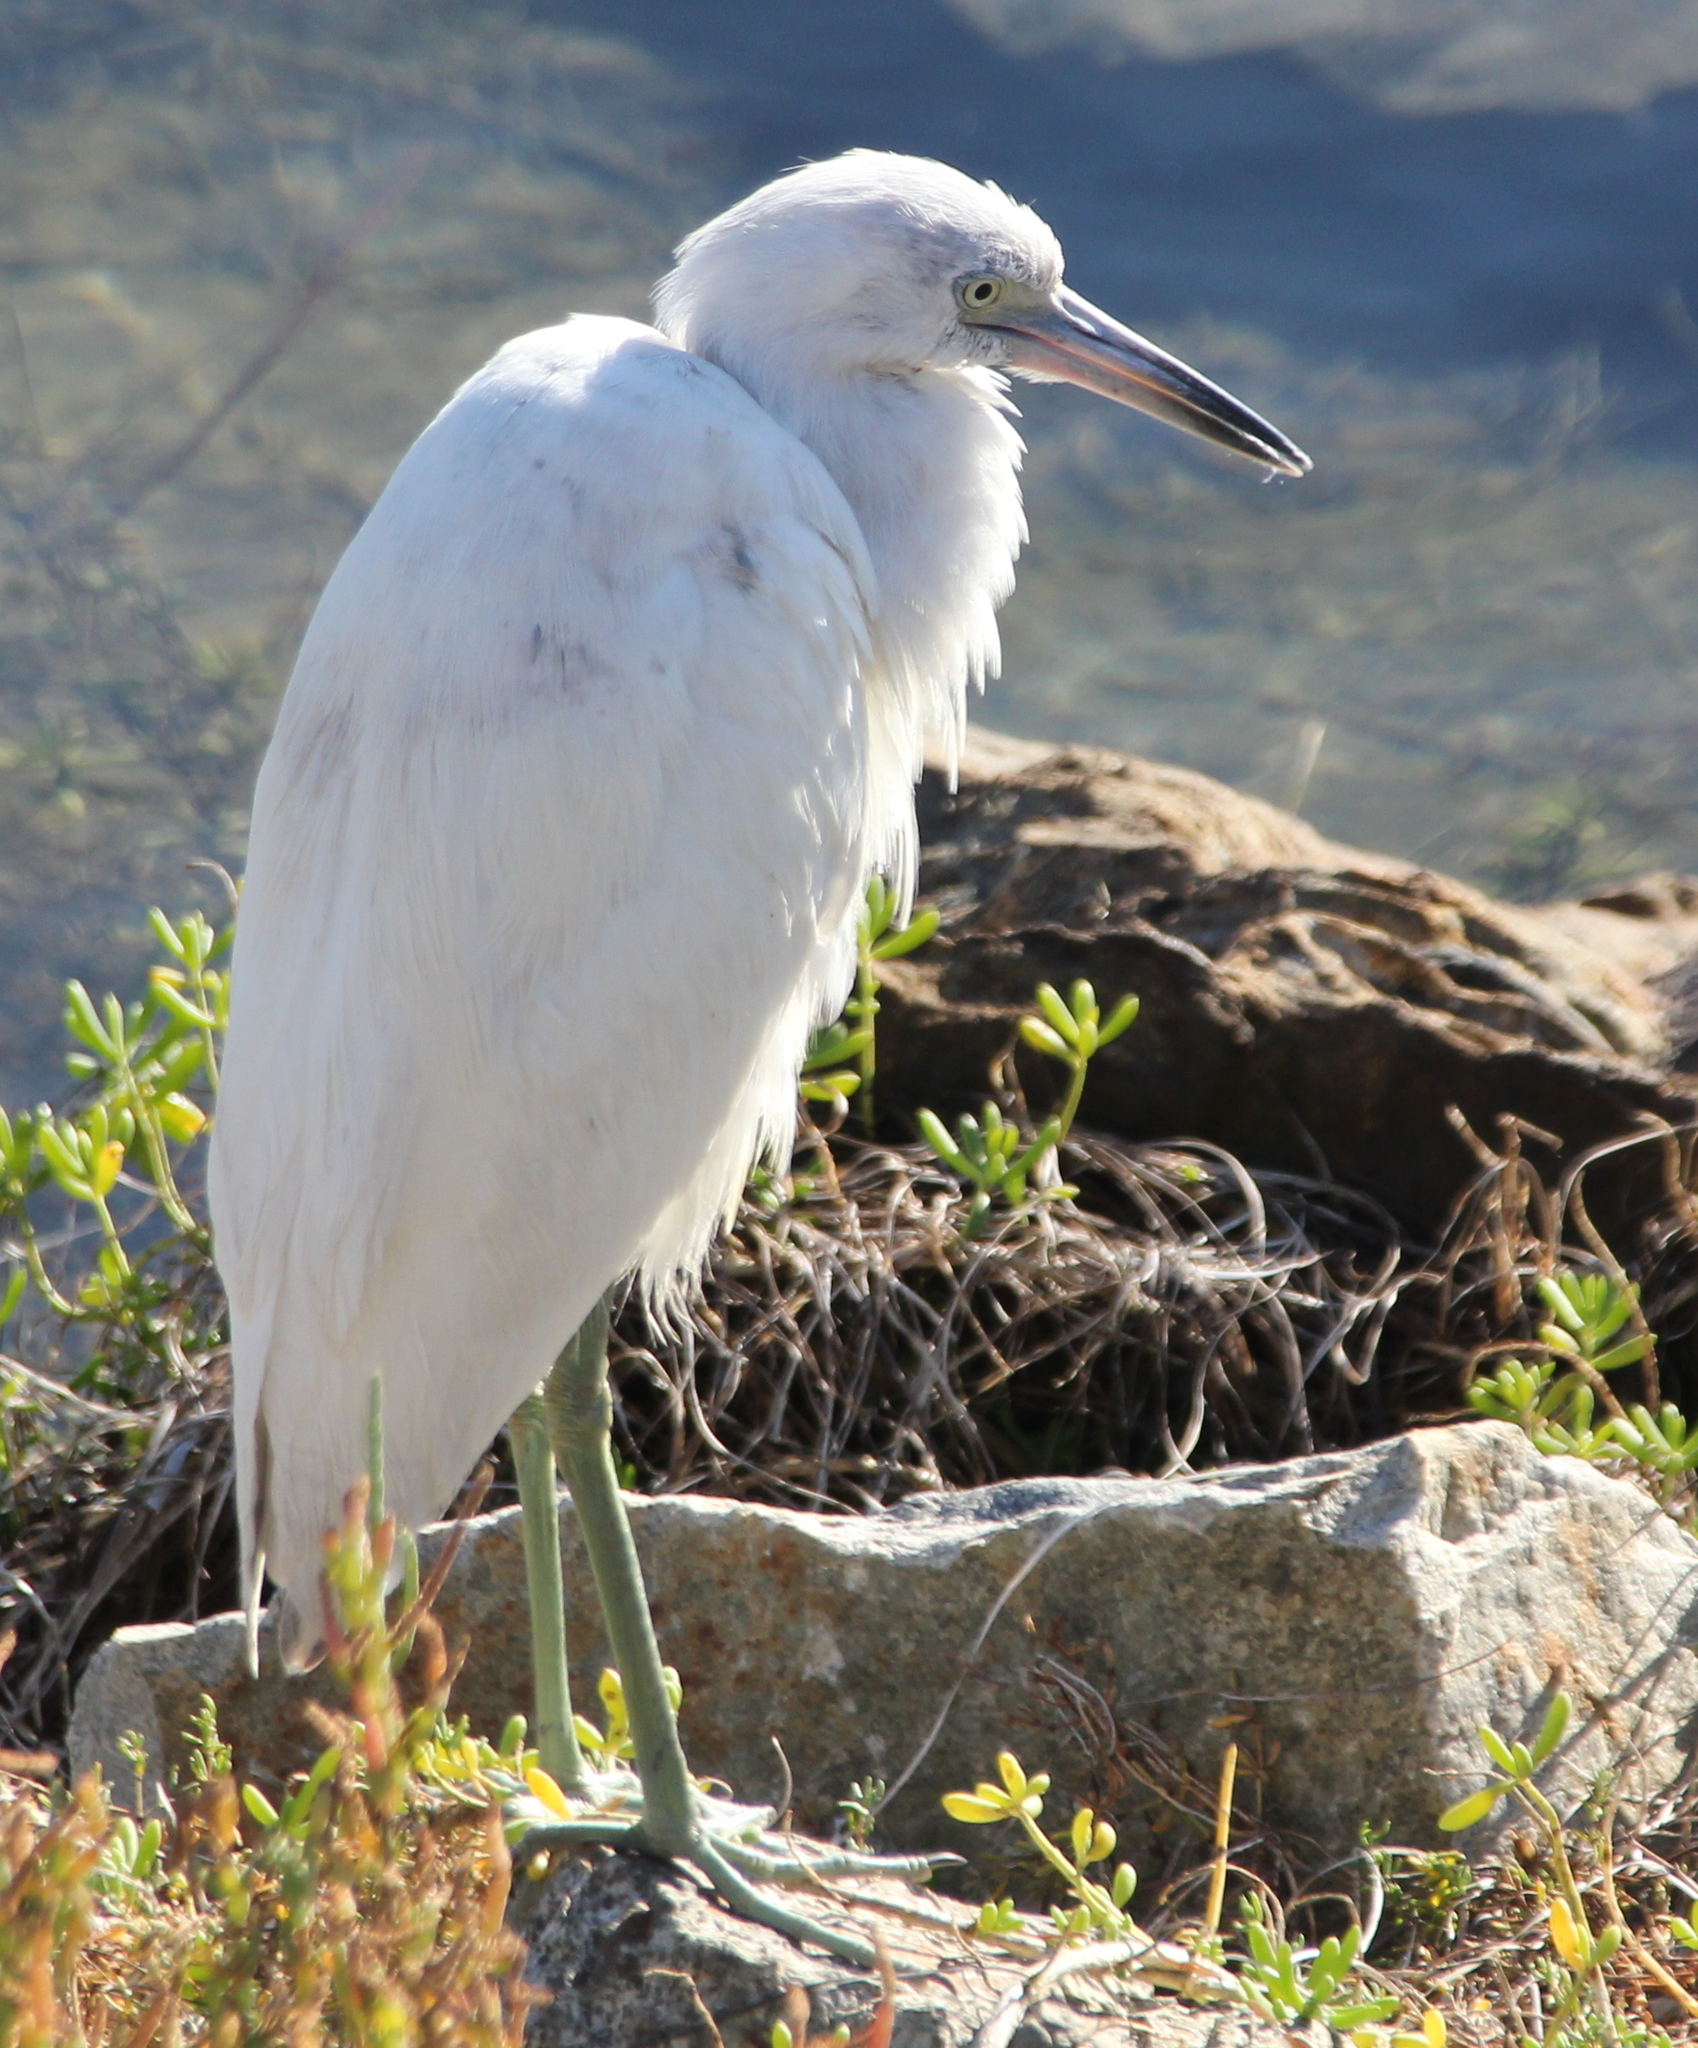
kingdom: Animalia
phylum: Chordata
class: Aves
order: Pelecaniformes
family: Ardeidae
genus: Egretta
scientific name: Egretta caerulea
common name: Little blue heron
